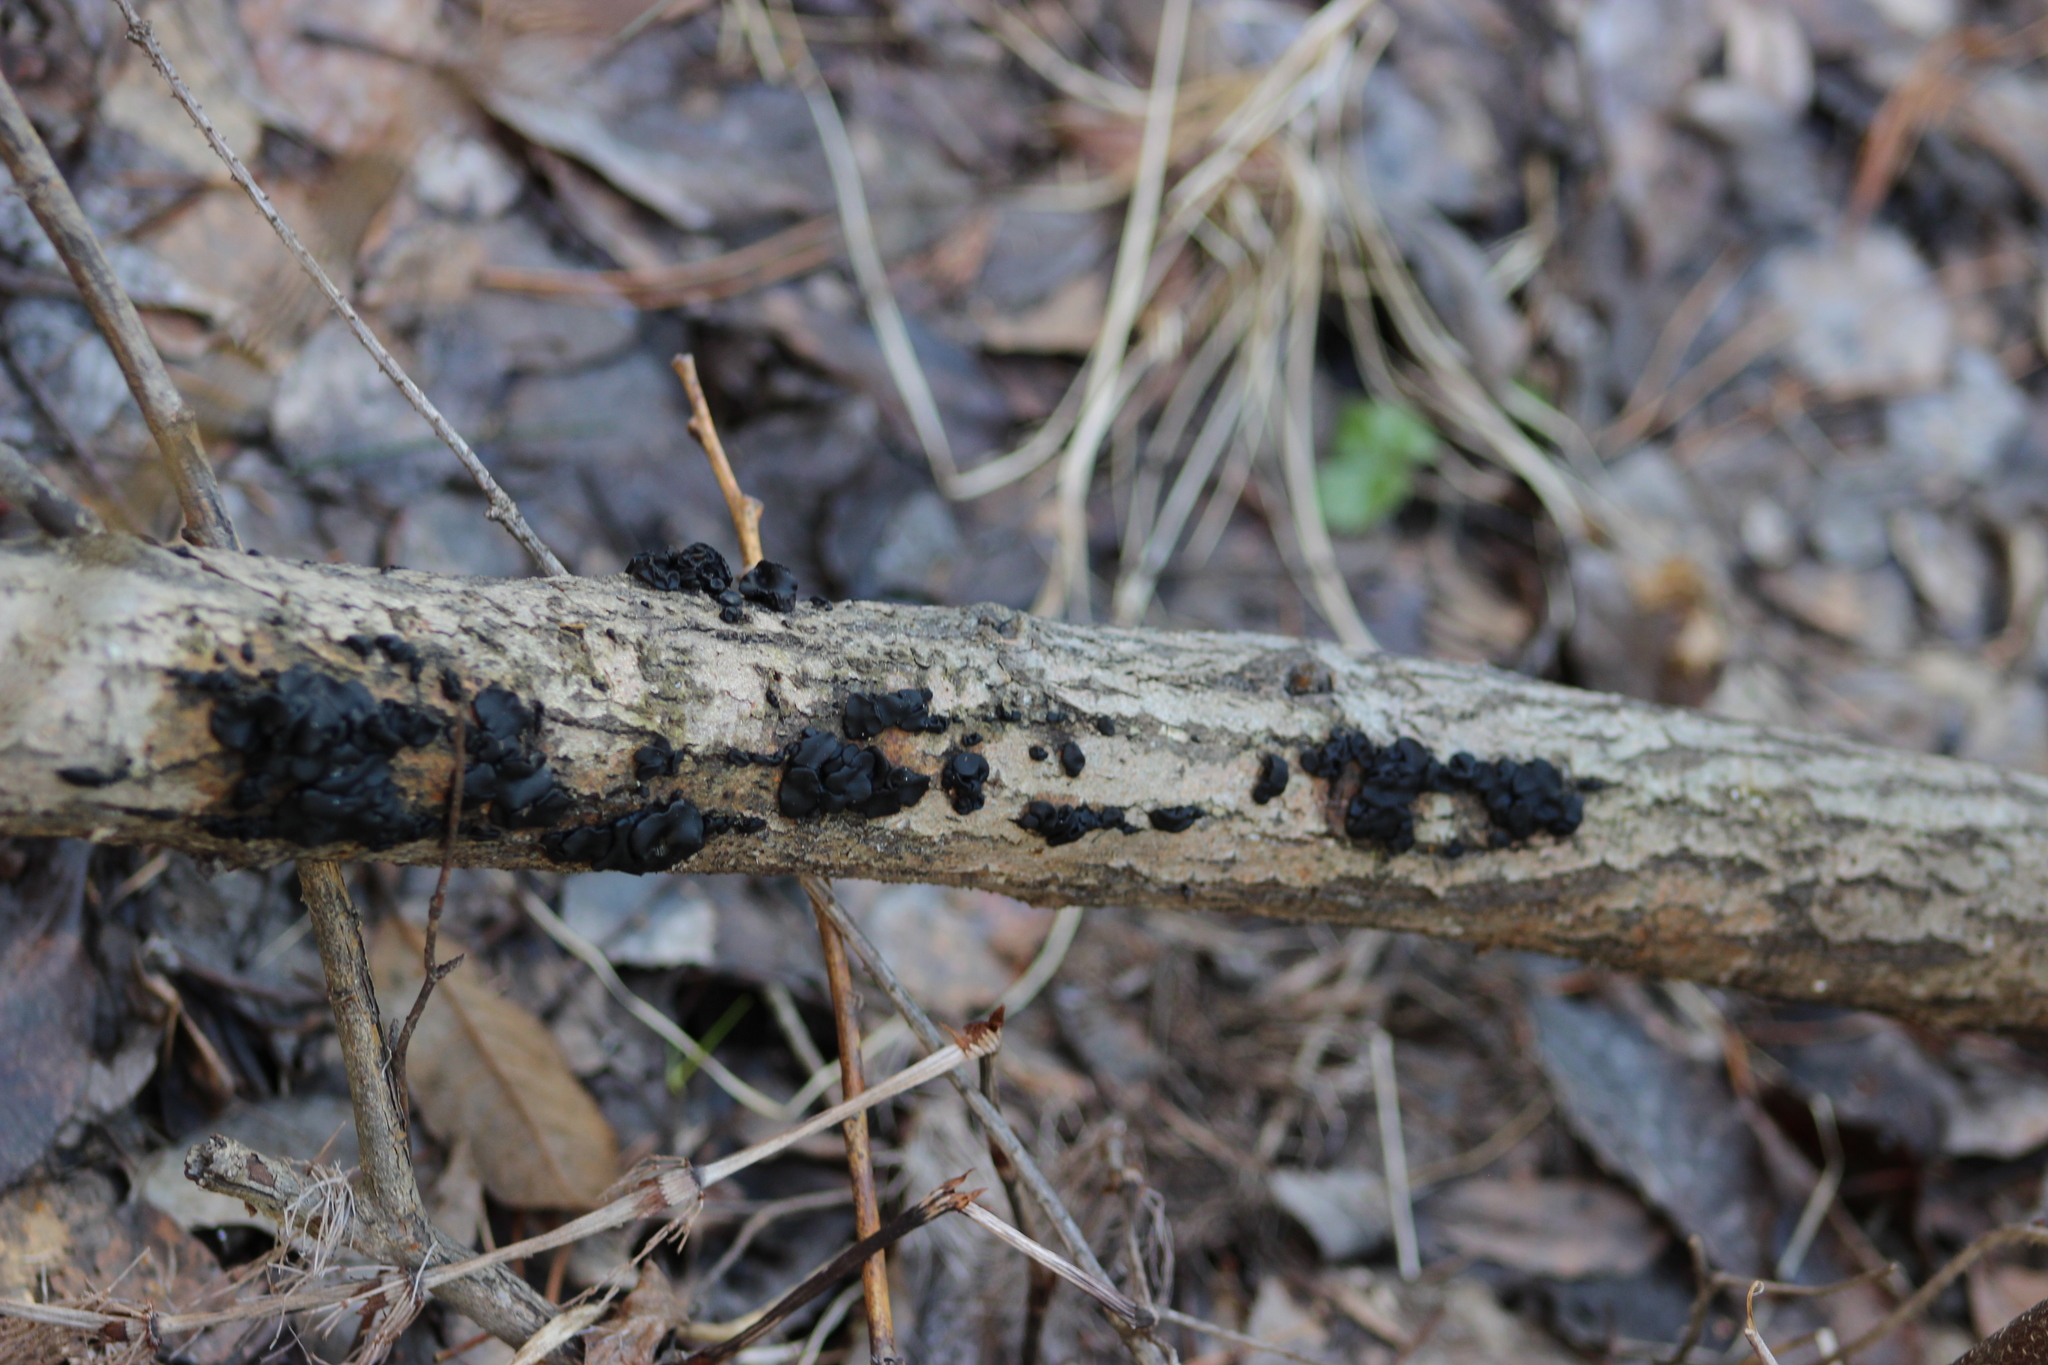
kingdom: Fungi
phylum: Basidiomycota
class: Agaricomycetes
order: Auriculariales
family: Auriculariaceae
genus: Exidia
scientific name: Exidia glandulosa
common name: Witches' butter
